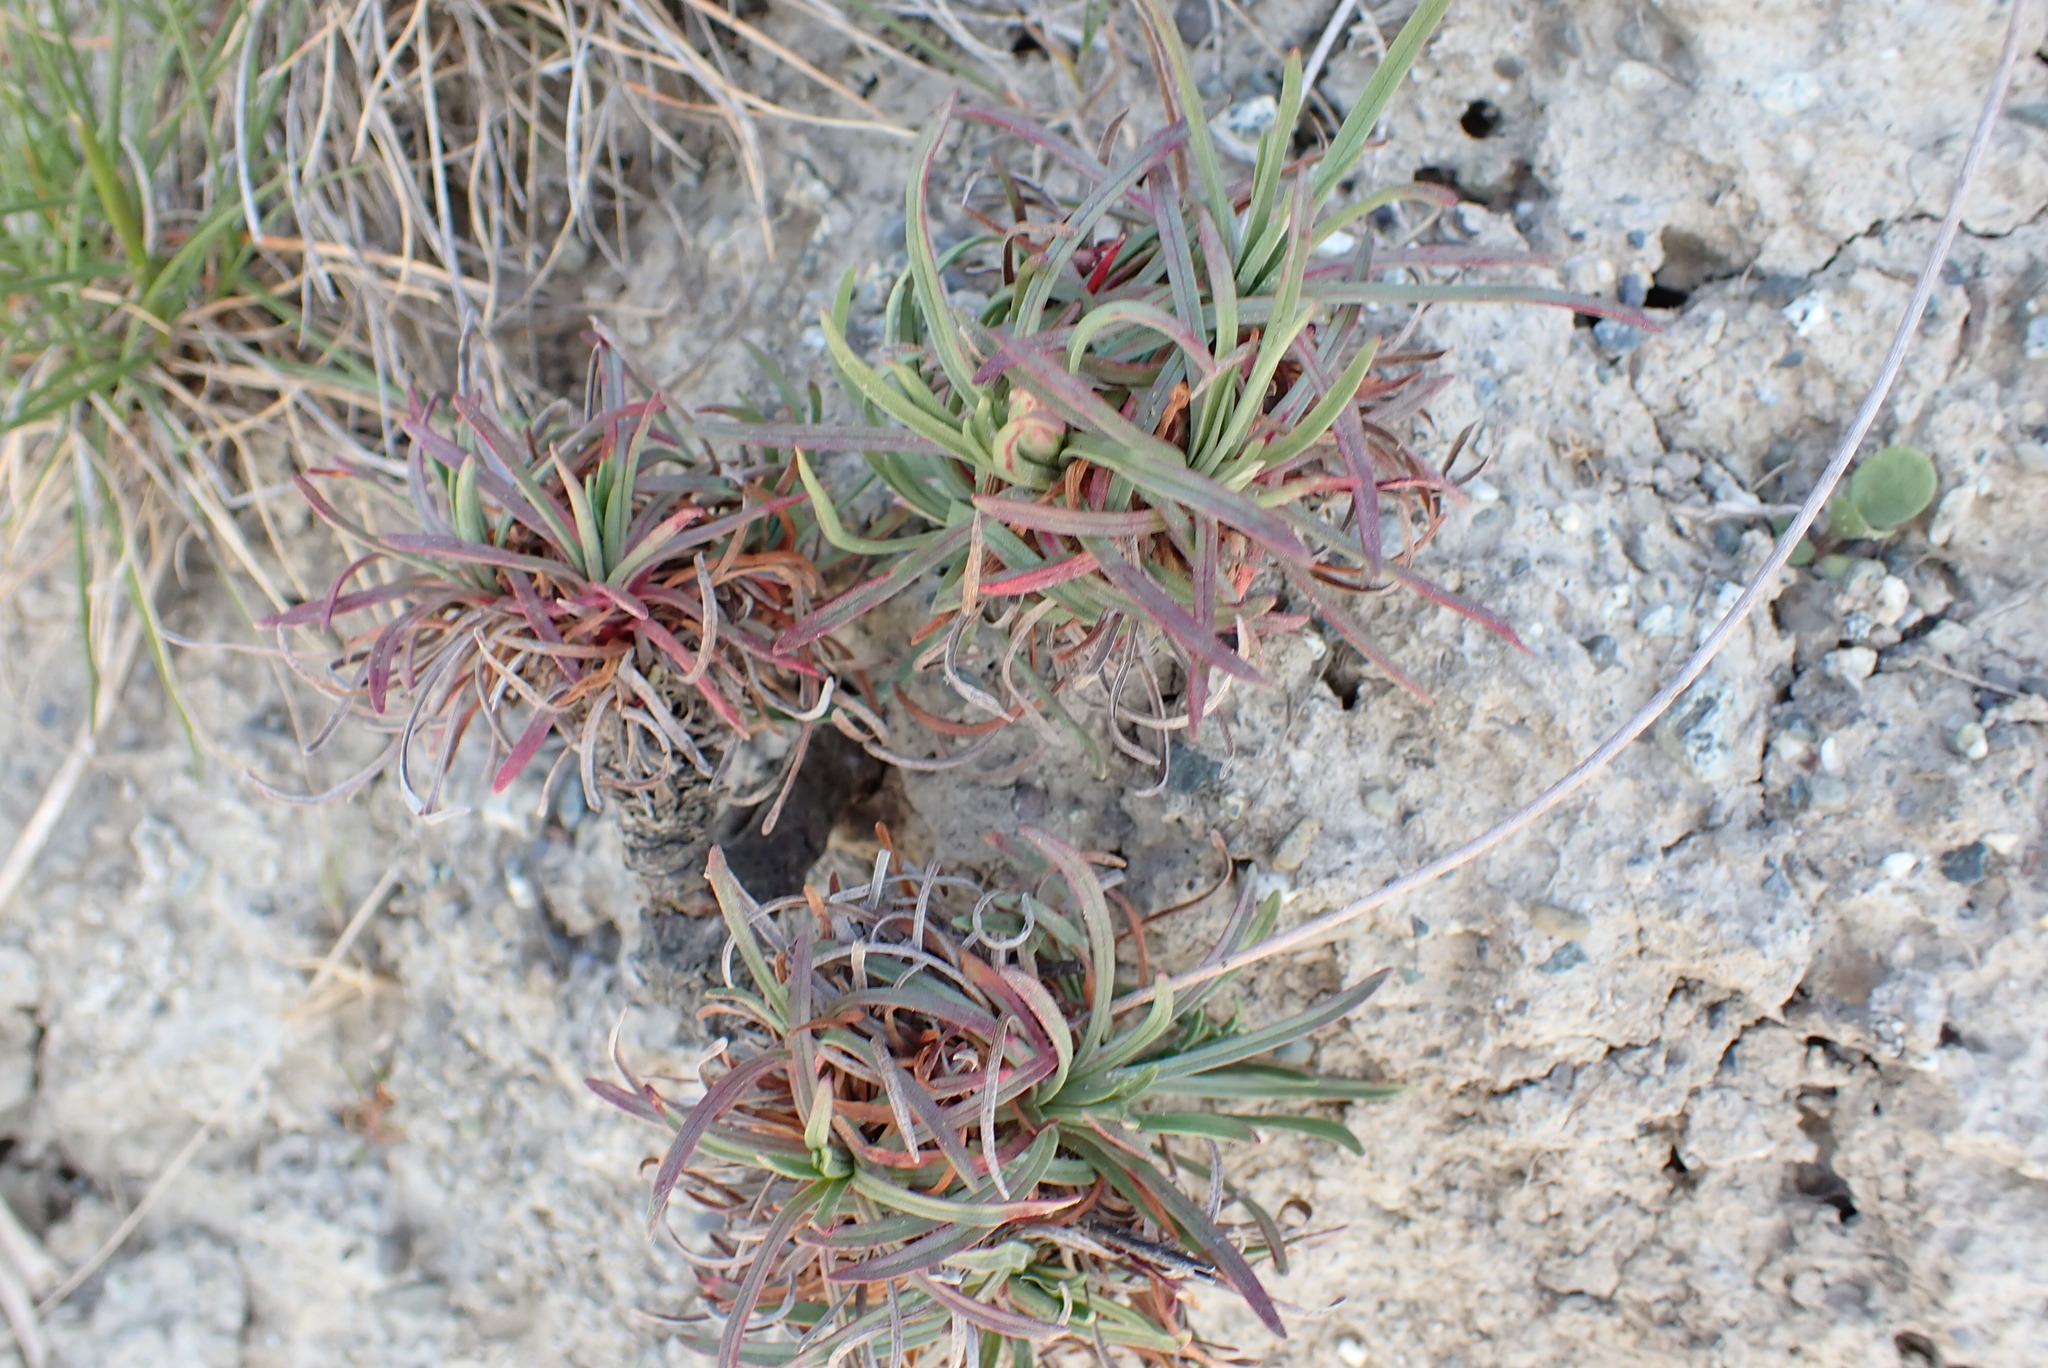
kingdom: Plantae
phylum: Tracheophyta
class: Magnoliopsida
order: Caryophyllales
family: Plumbaginaceae
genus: Armeria
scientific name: Armeria maritima
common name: Thrift
